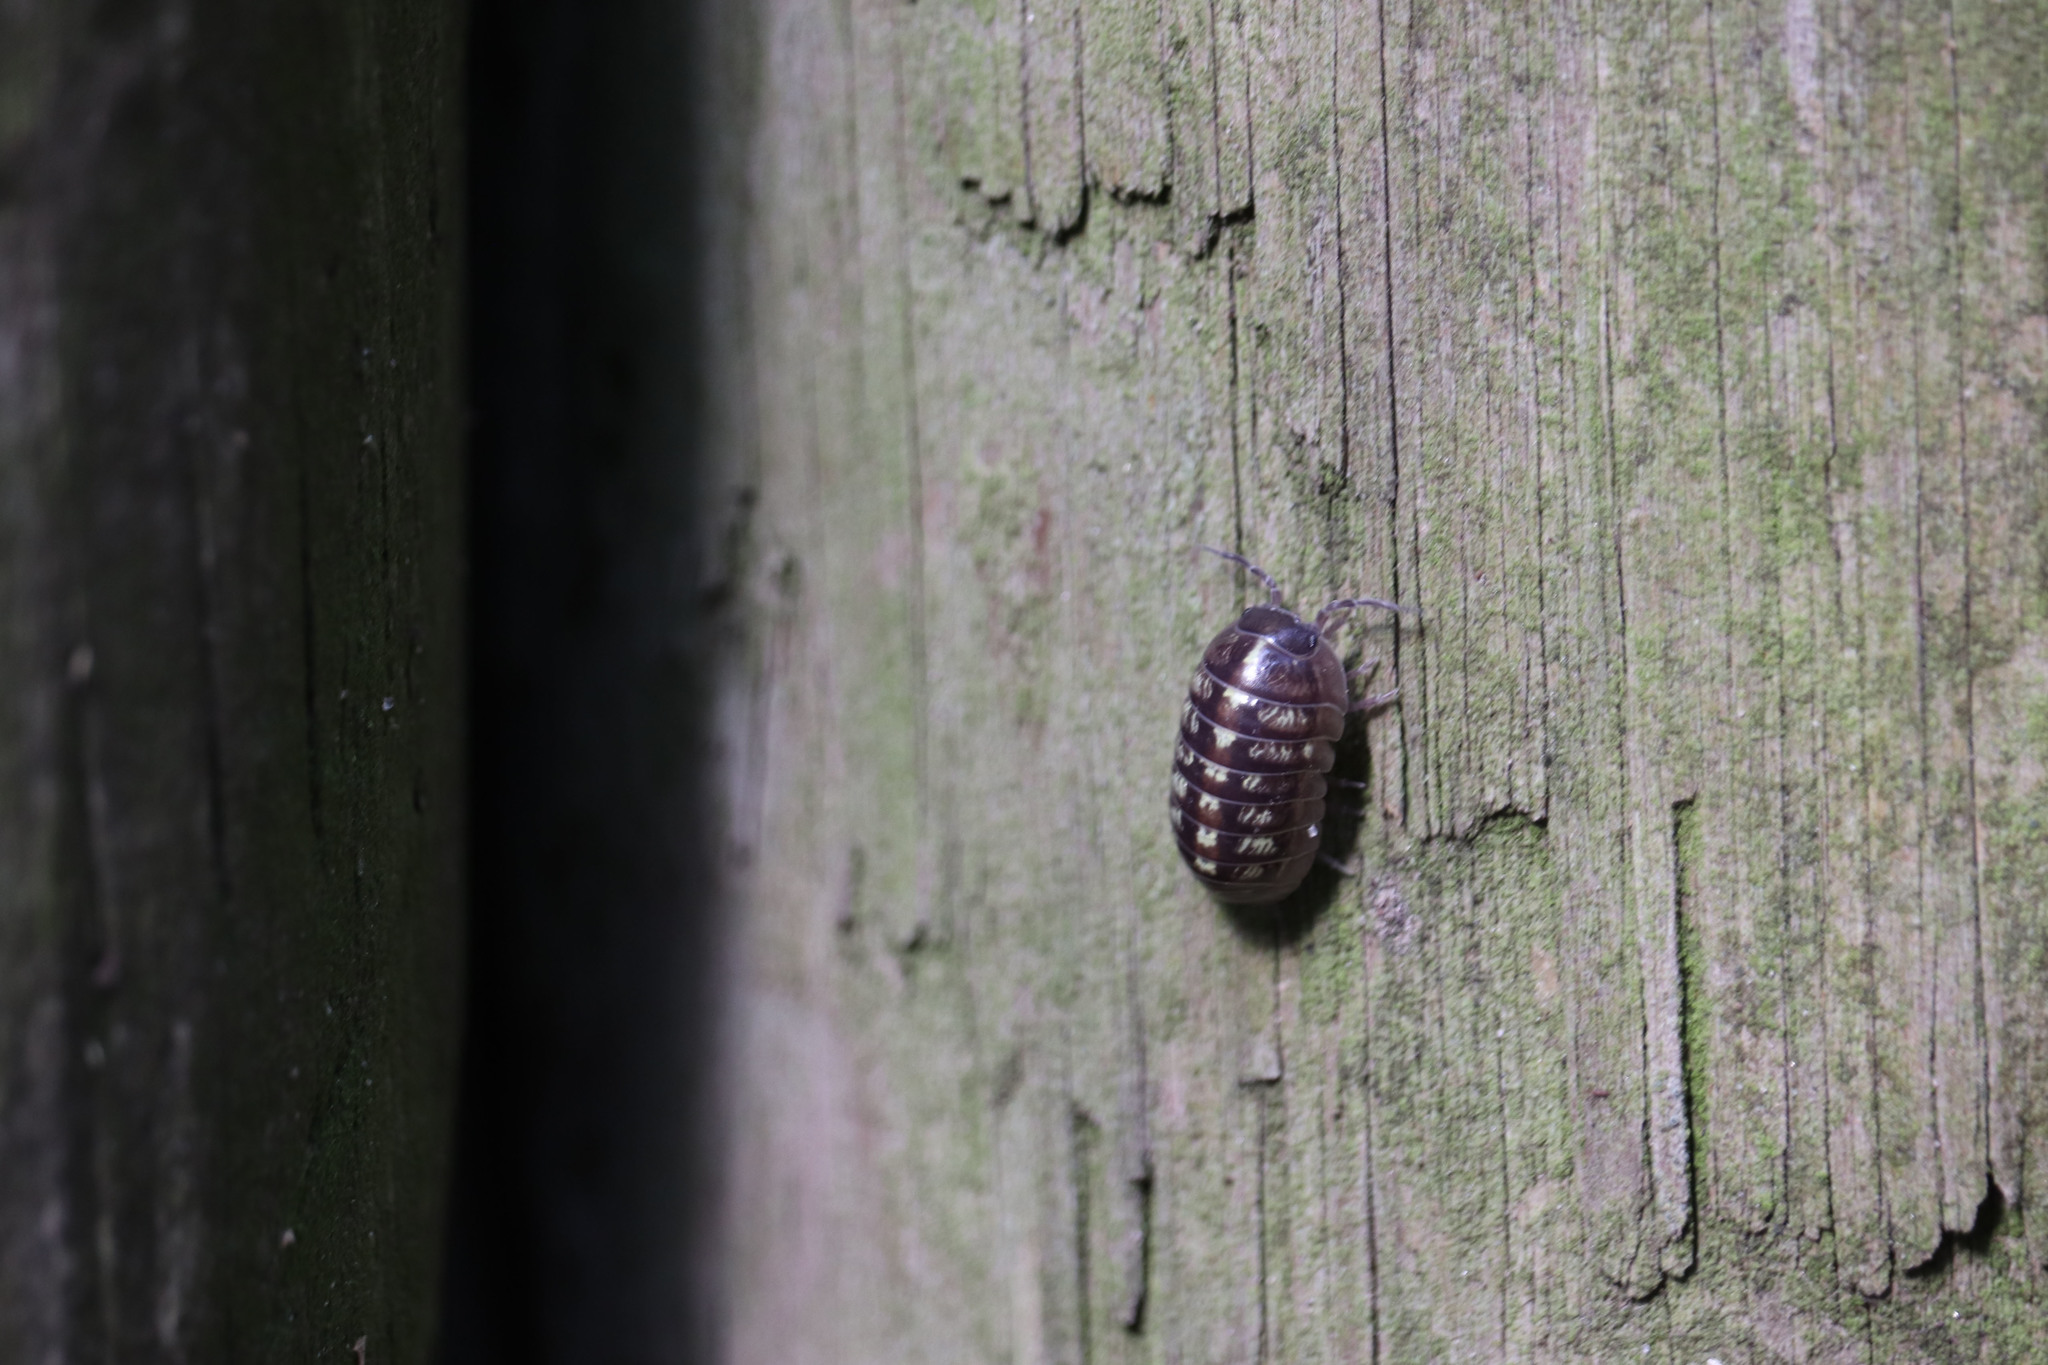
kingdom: Animalia
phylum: Arthropoda
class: Malacostraca
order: Isopoda
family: Armadillidiidae
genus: Armadillidium
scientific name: Armadillidium vulgare
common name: Common pill woodlouse
